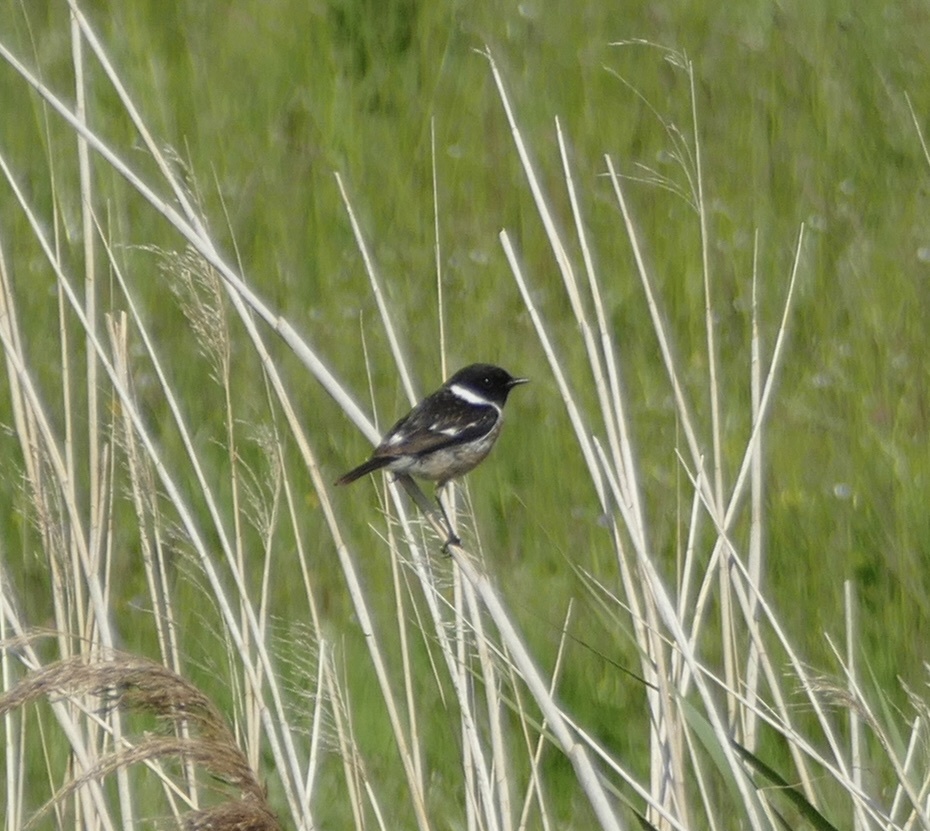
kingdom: Animalia
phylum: Chordata
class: Aves
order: Passeriformes
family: Muscicapidae
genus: Saxicola
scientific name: Saxicola rubicola
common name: European stonechat
